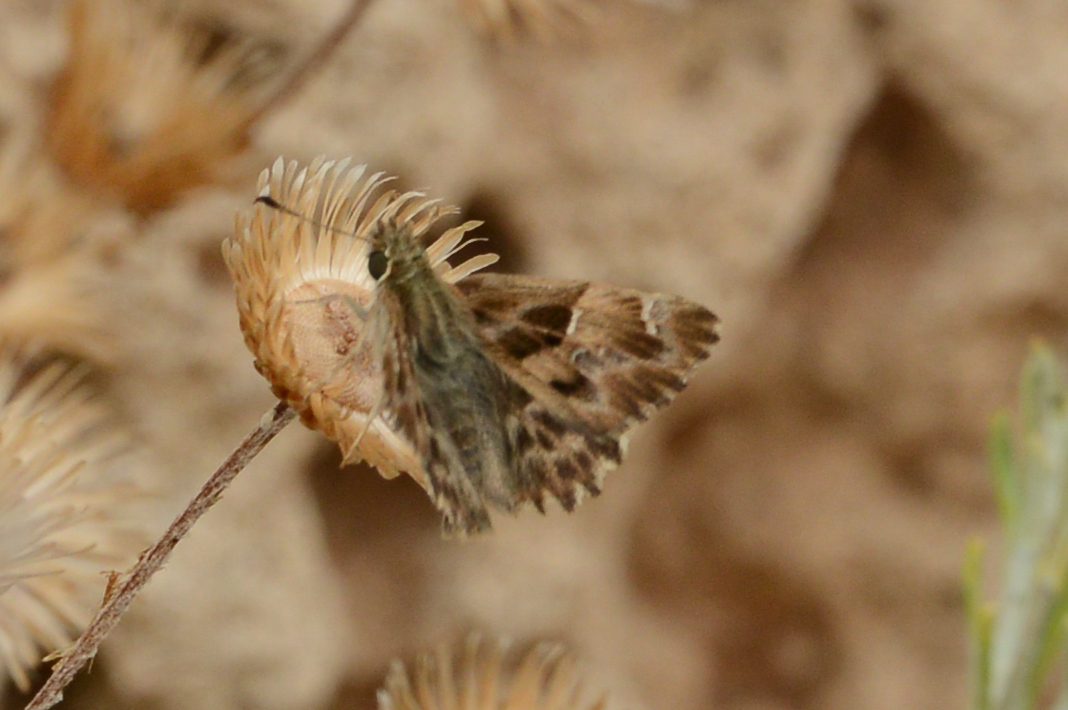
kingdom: Animalia
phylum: Arthropoda
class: Insecta
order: Lepidoptera
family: Hesperiidae
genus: Carcharodus
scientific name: Carcharodus alceae
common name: Mallow skipper
